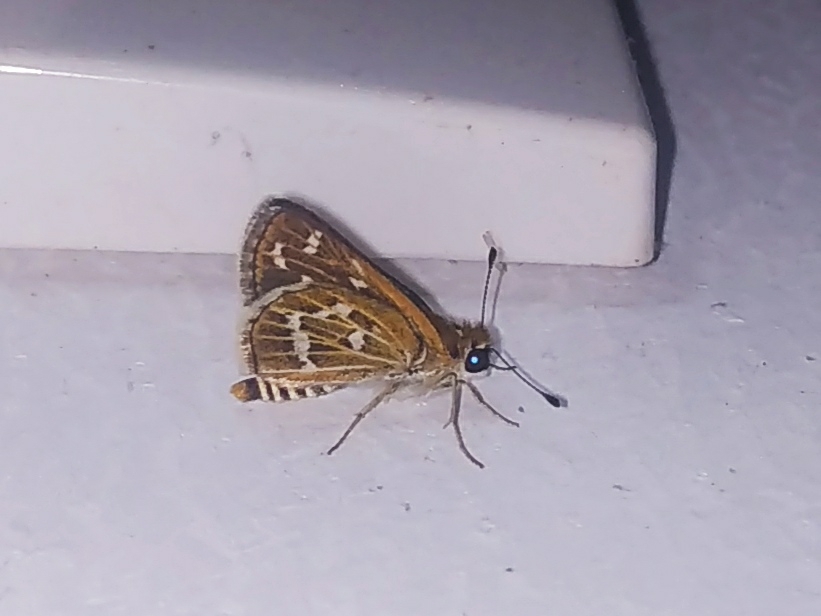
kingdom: Animalia
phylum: Arthropoda
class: Insecta
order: Lepidoptera
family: Hesperiidae
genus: Taractrocera
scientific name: Taractrocera maevius
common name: Common grass-dart
